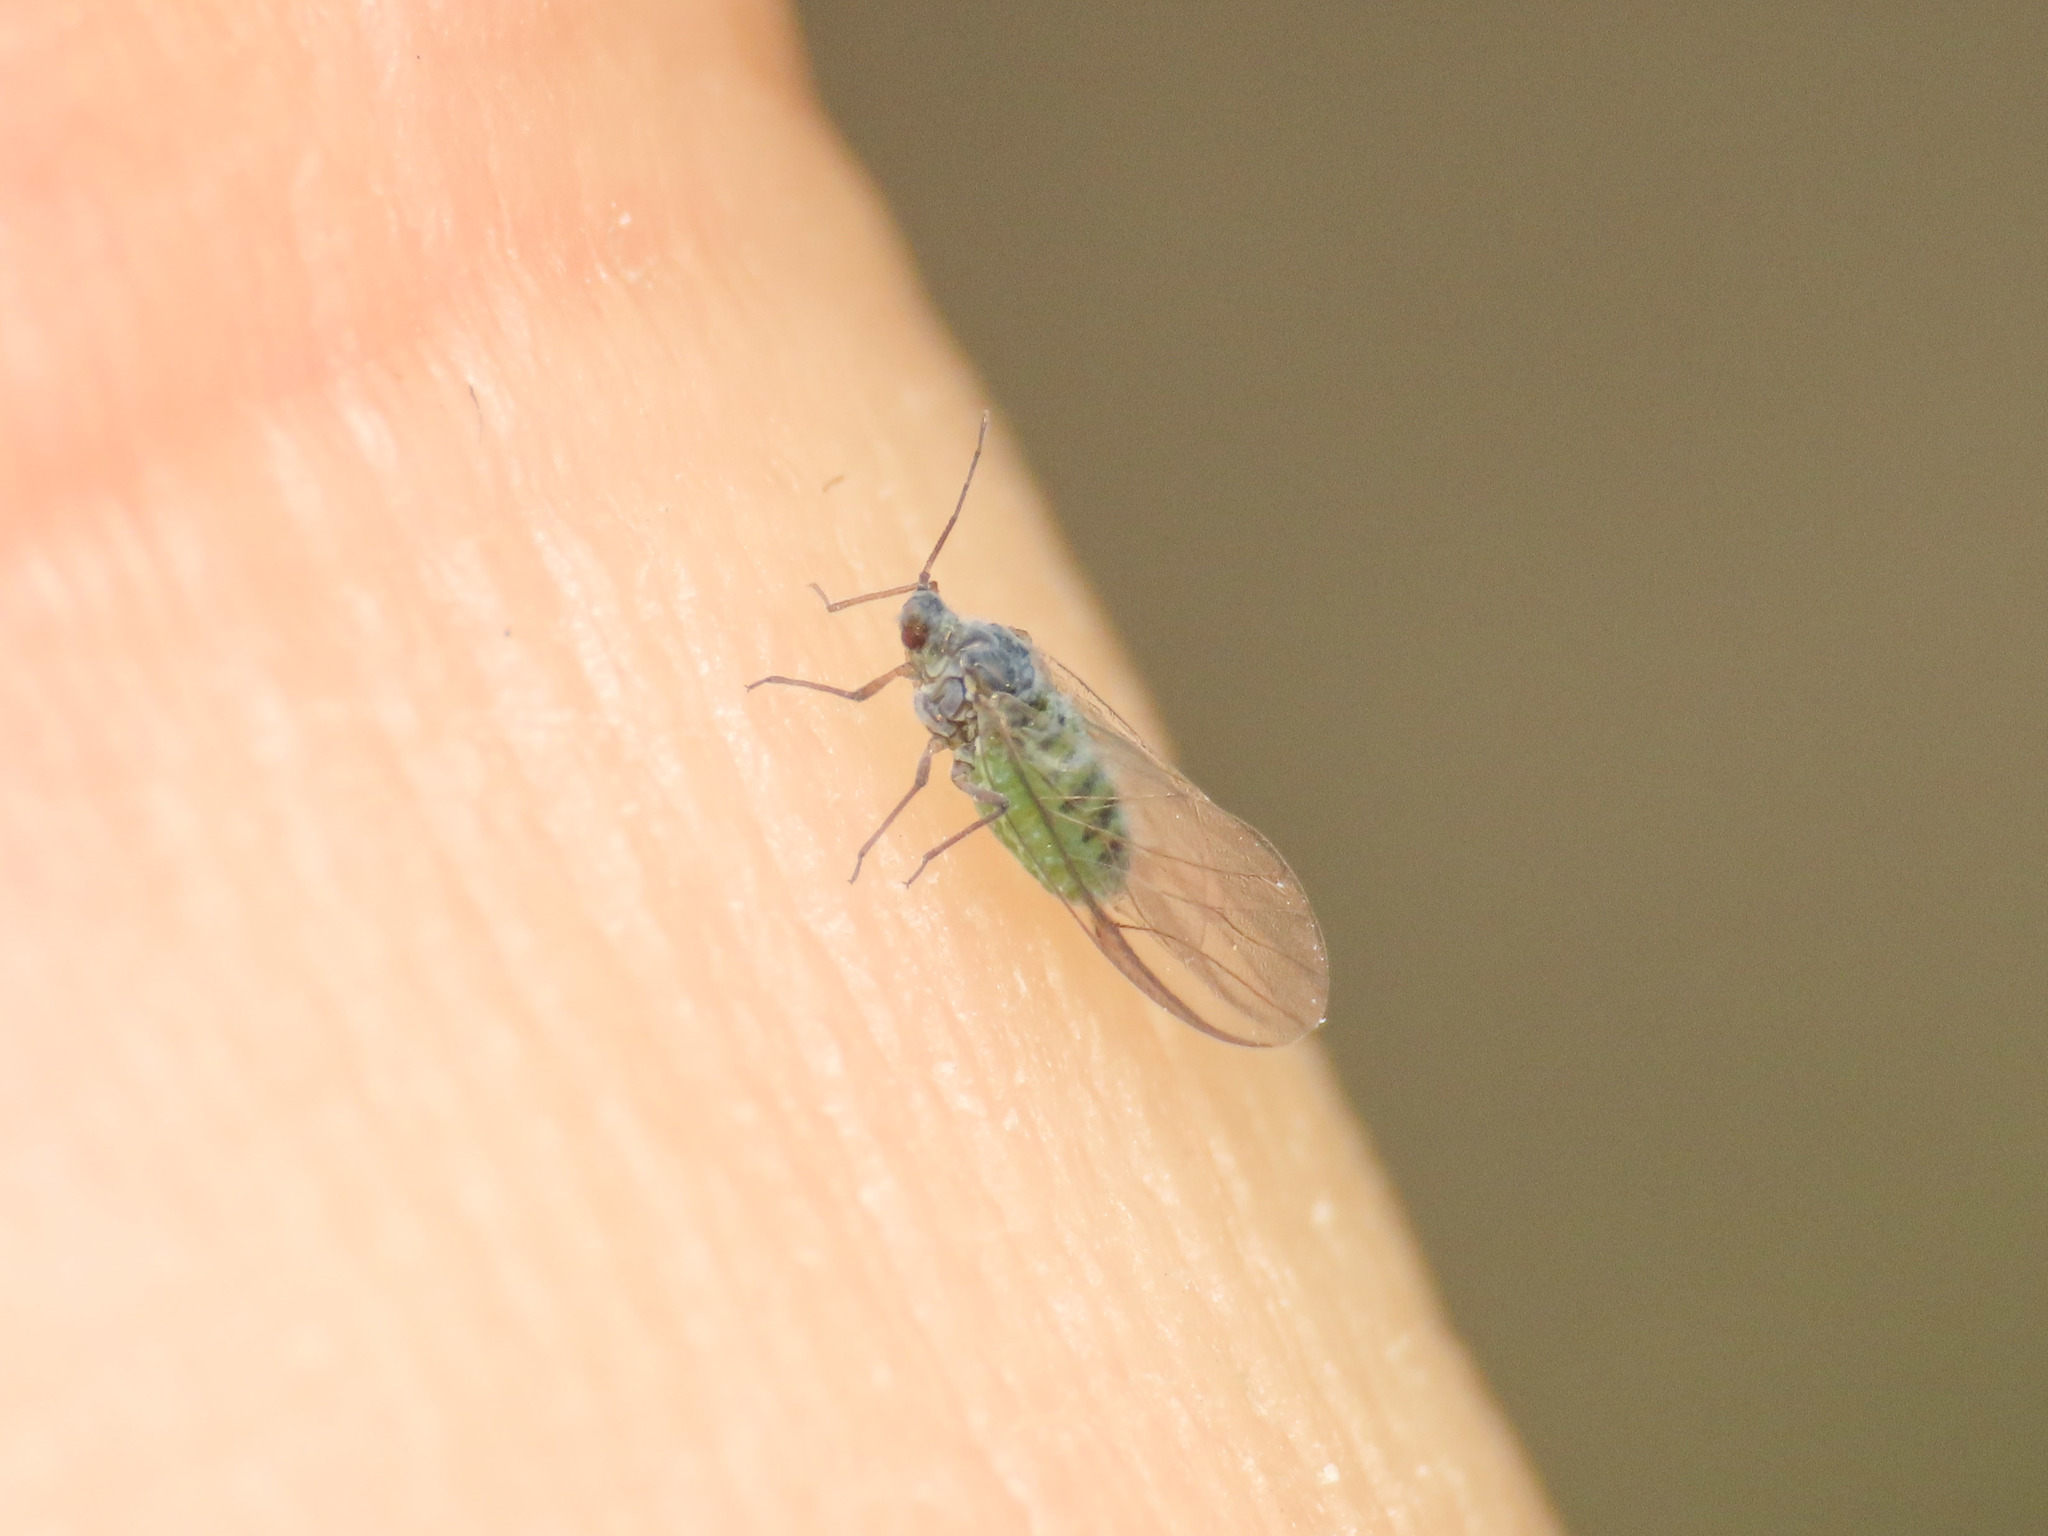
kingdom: Animalia
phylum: Arthropoda
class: Insecta
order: Hemiptera
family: Aphididae
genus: Mindarus
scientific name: Mindarus abietinus
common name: Balsam twig aphid
